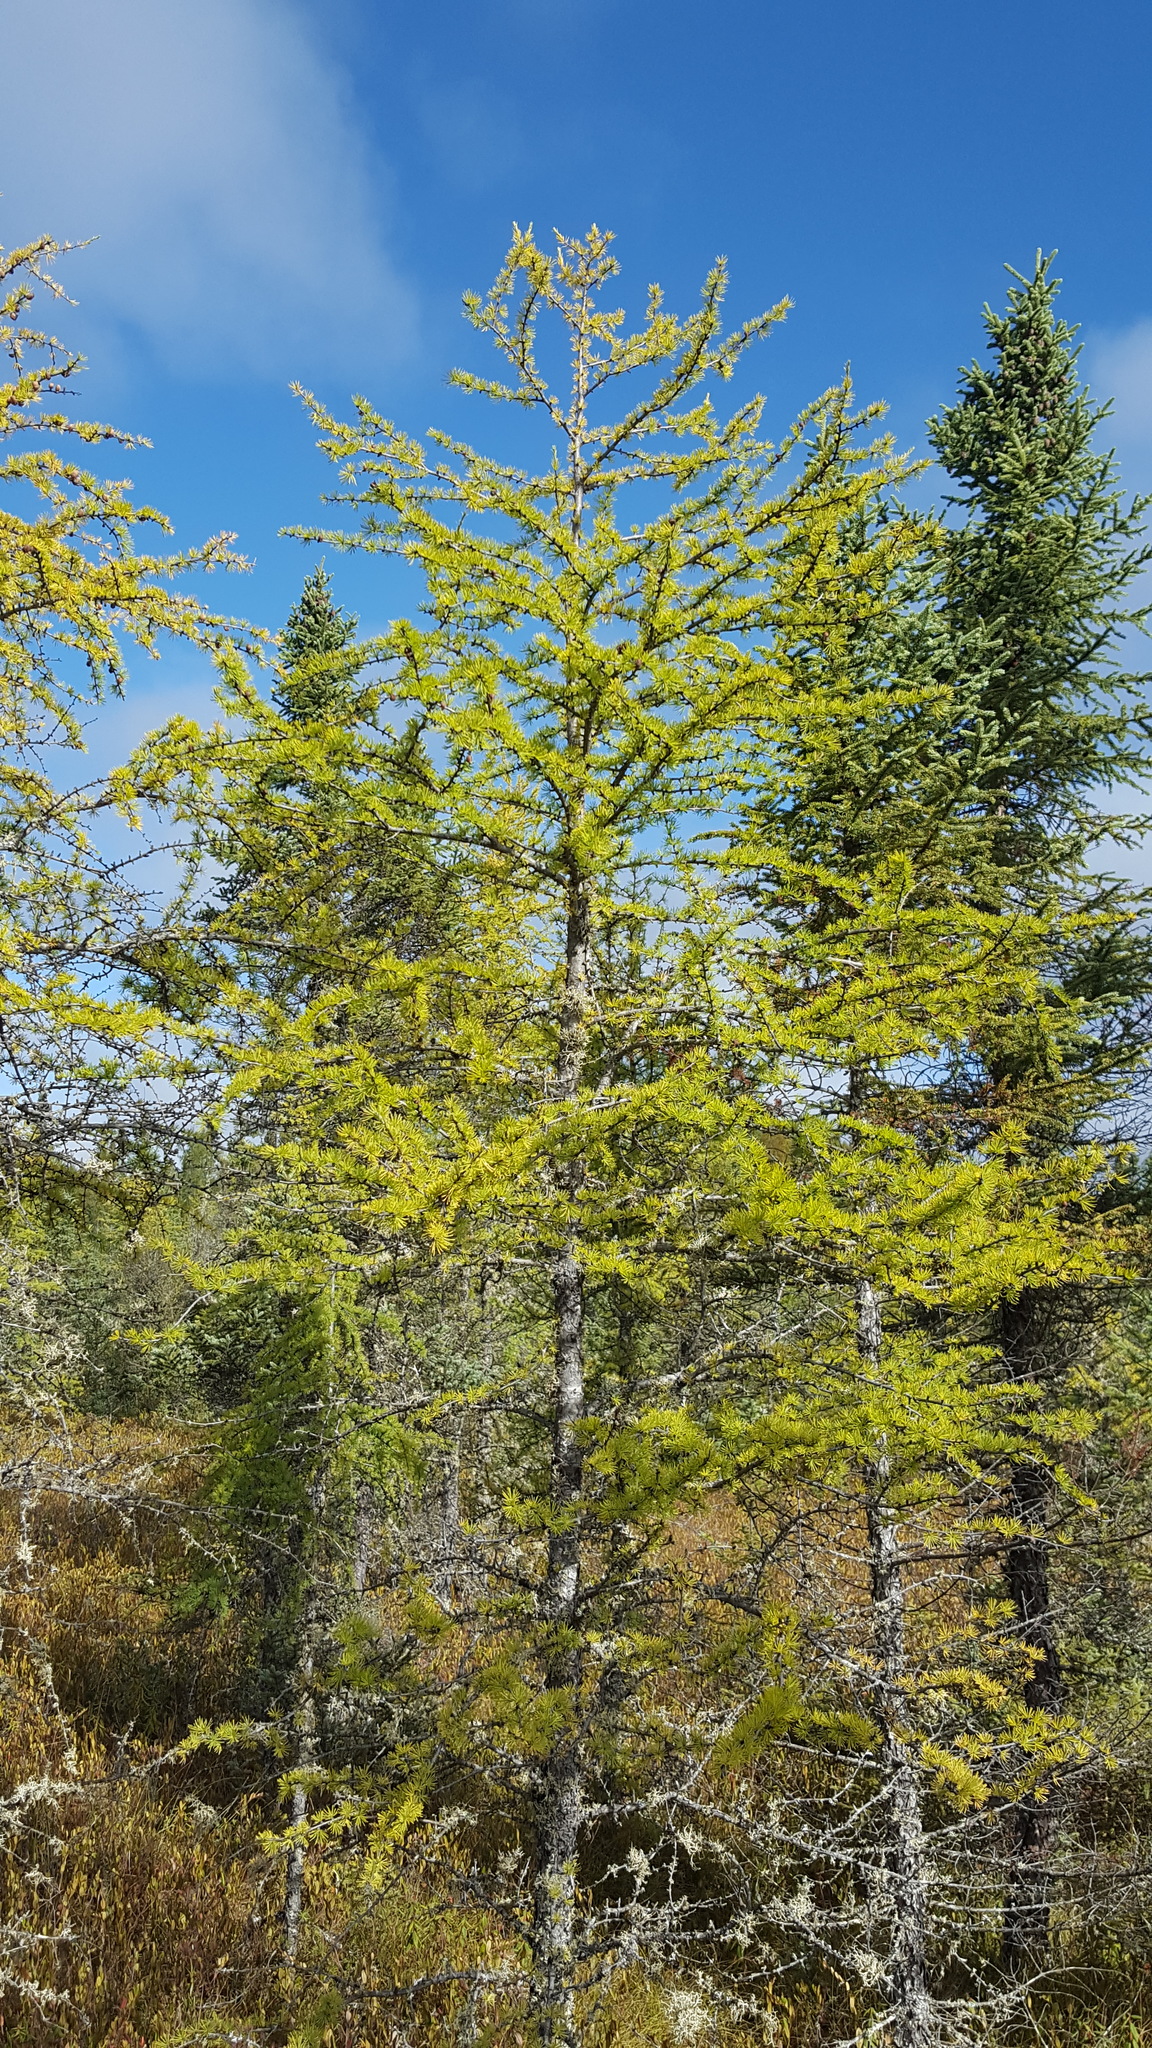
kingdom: Plantae
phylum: Tracheophyta
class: Pinopsida
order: Pinales
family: Pinaceae
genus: Larix
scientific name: Larix laricina
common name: American larch
